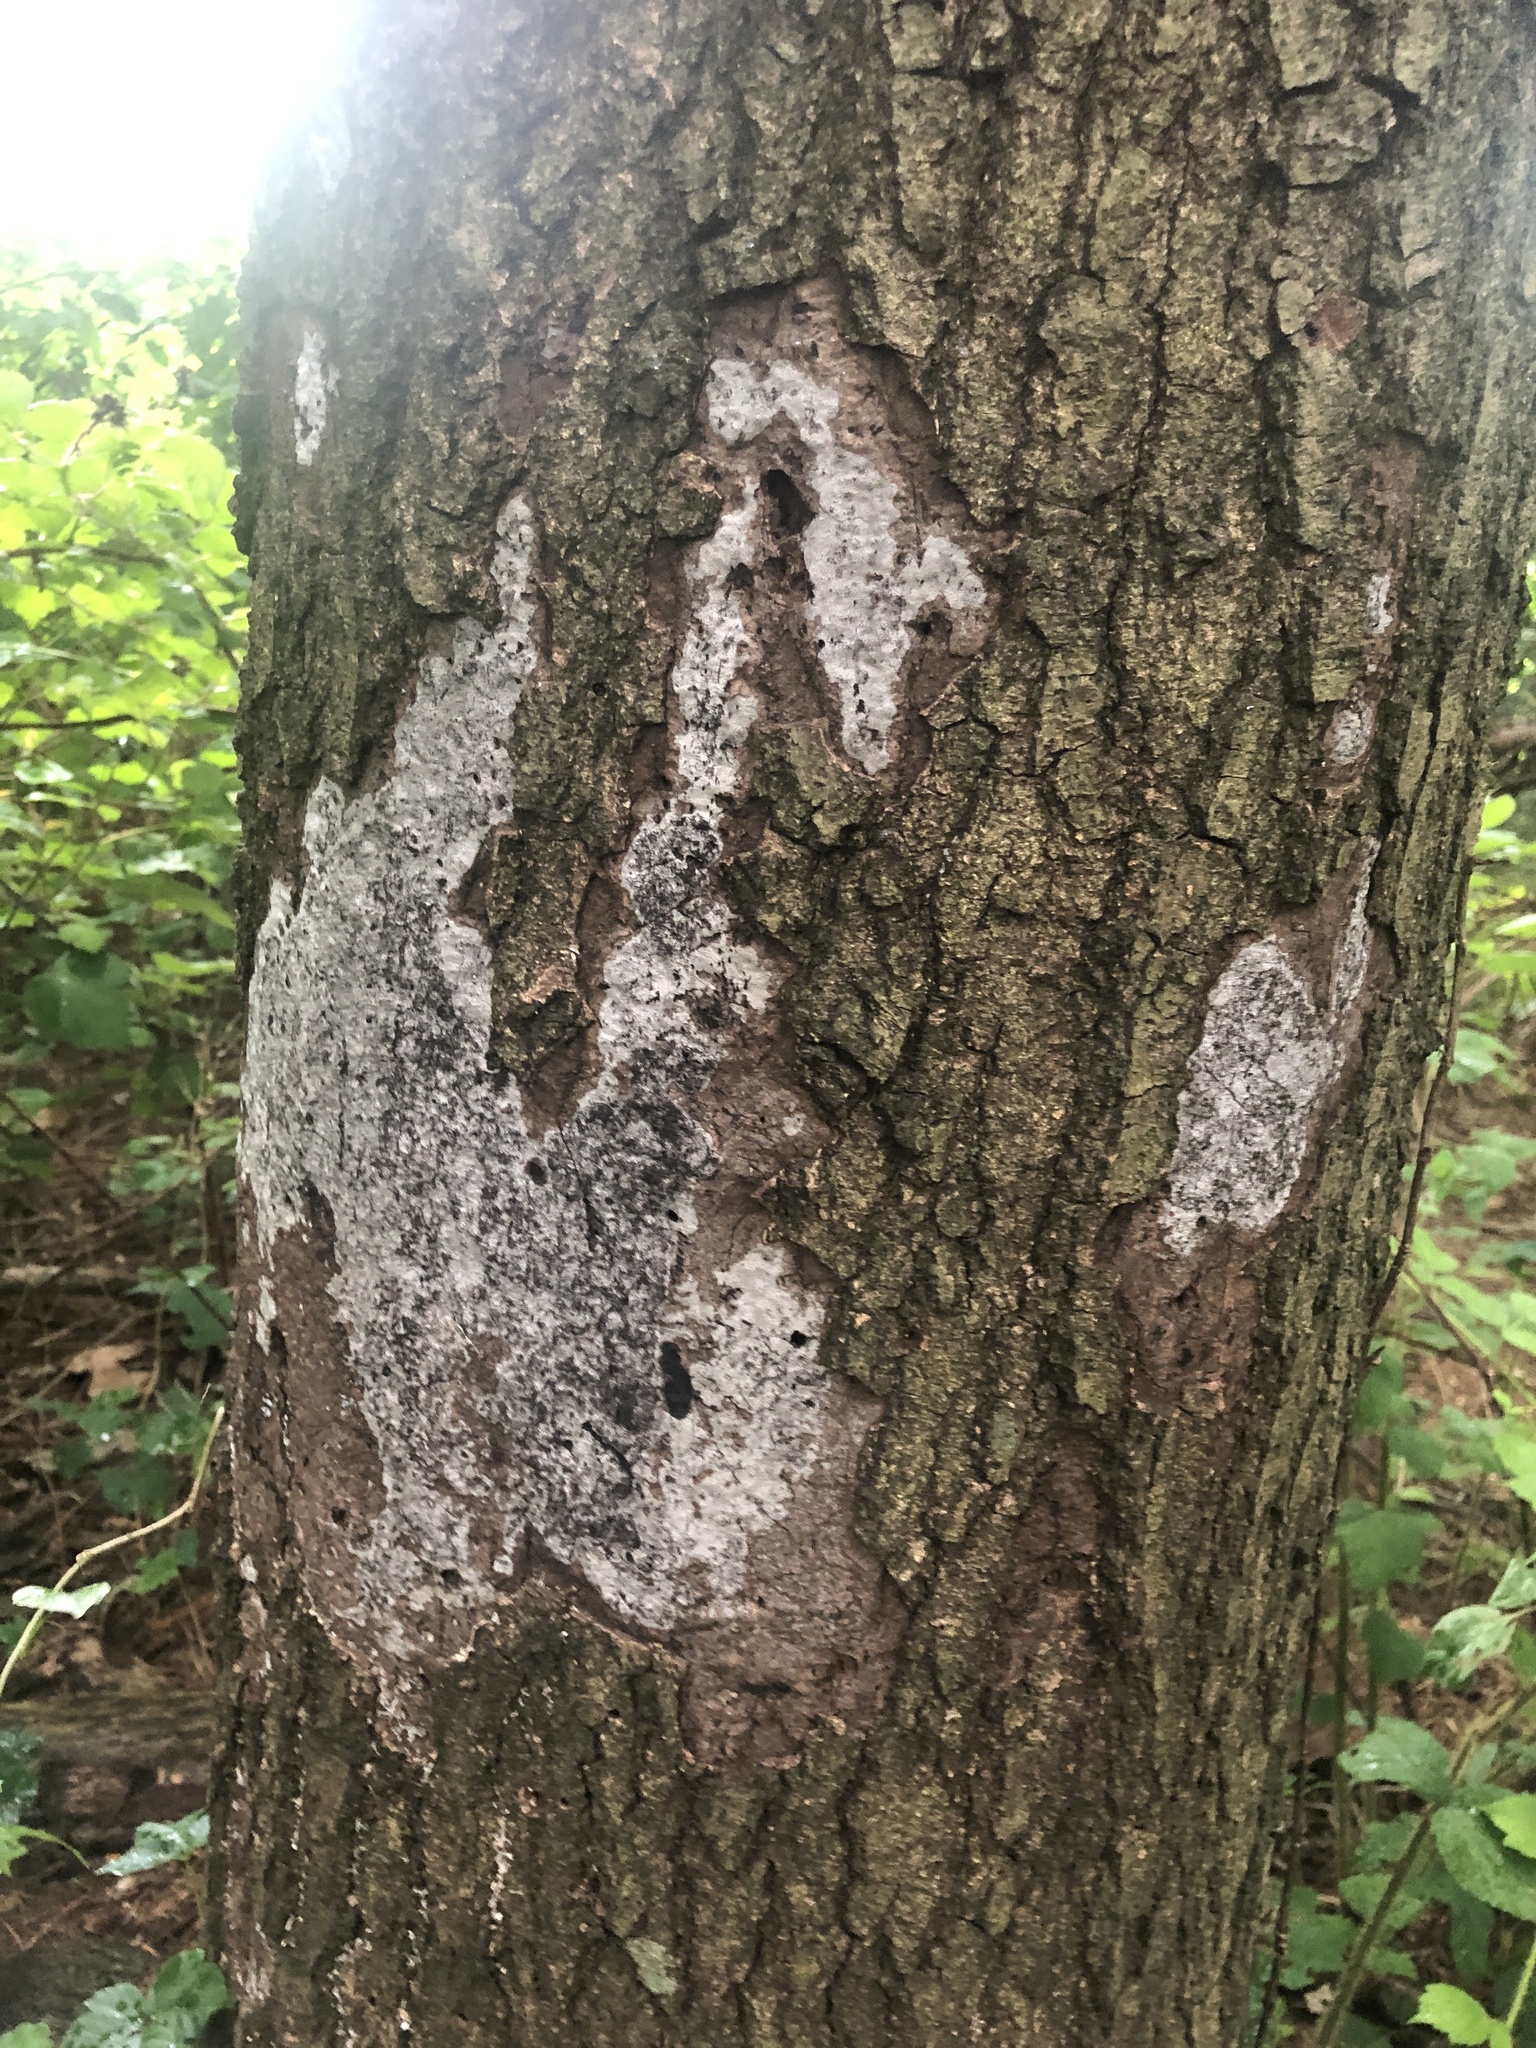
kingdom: Fungi
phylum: Ascomycota
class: Sordariomycetes
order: Xylariales
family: Graphostromataceae
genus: Biscogniauxia
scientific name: Biscogniauxia atropunctata
